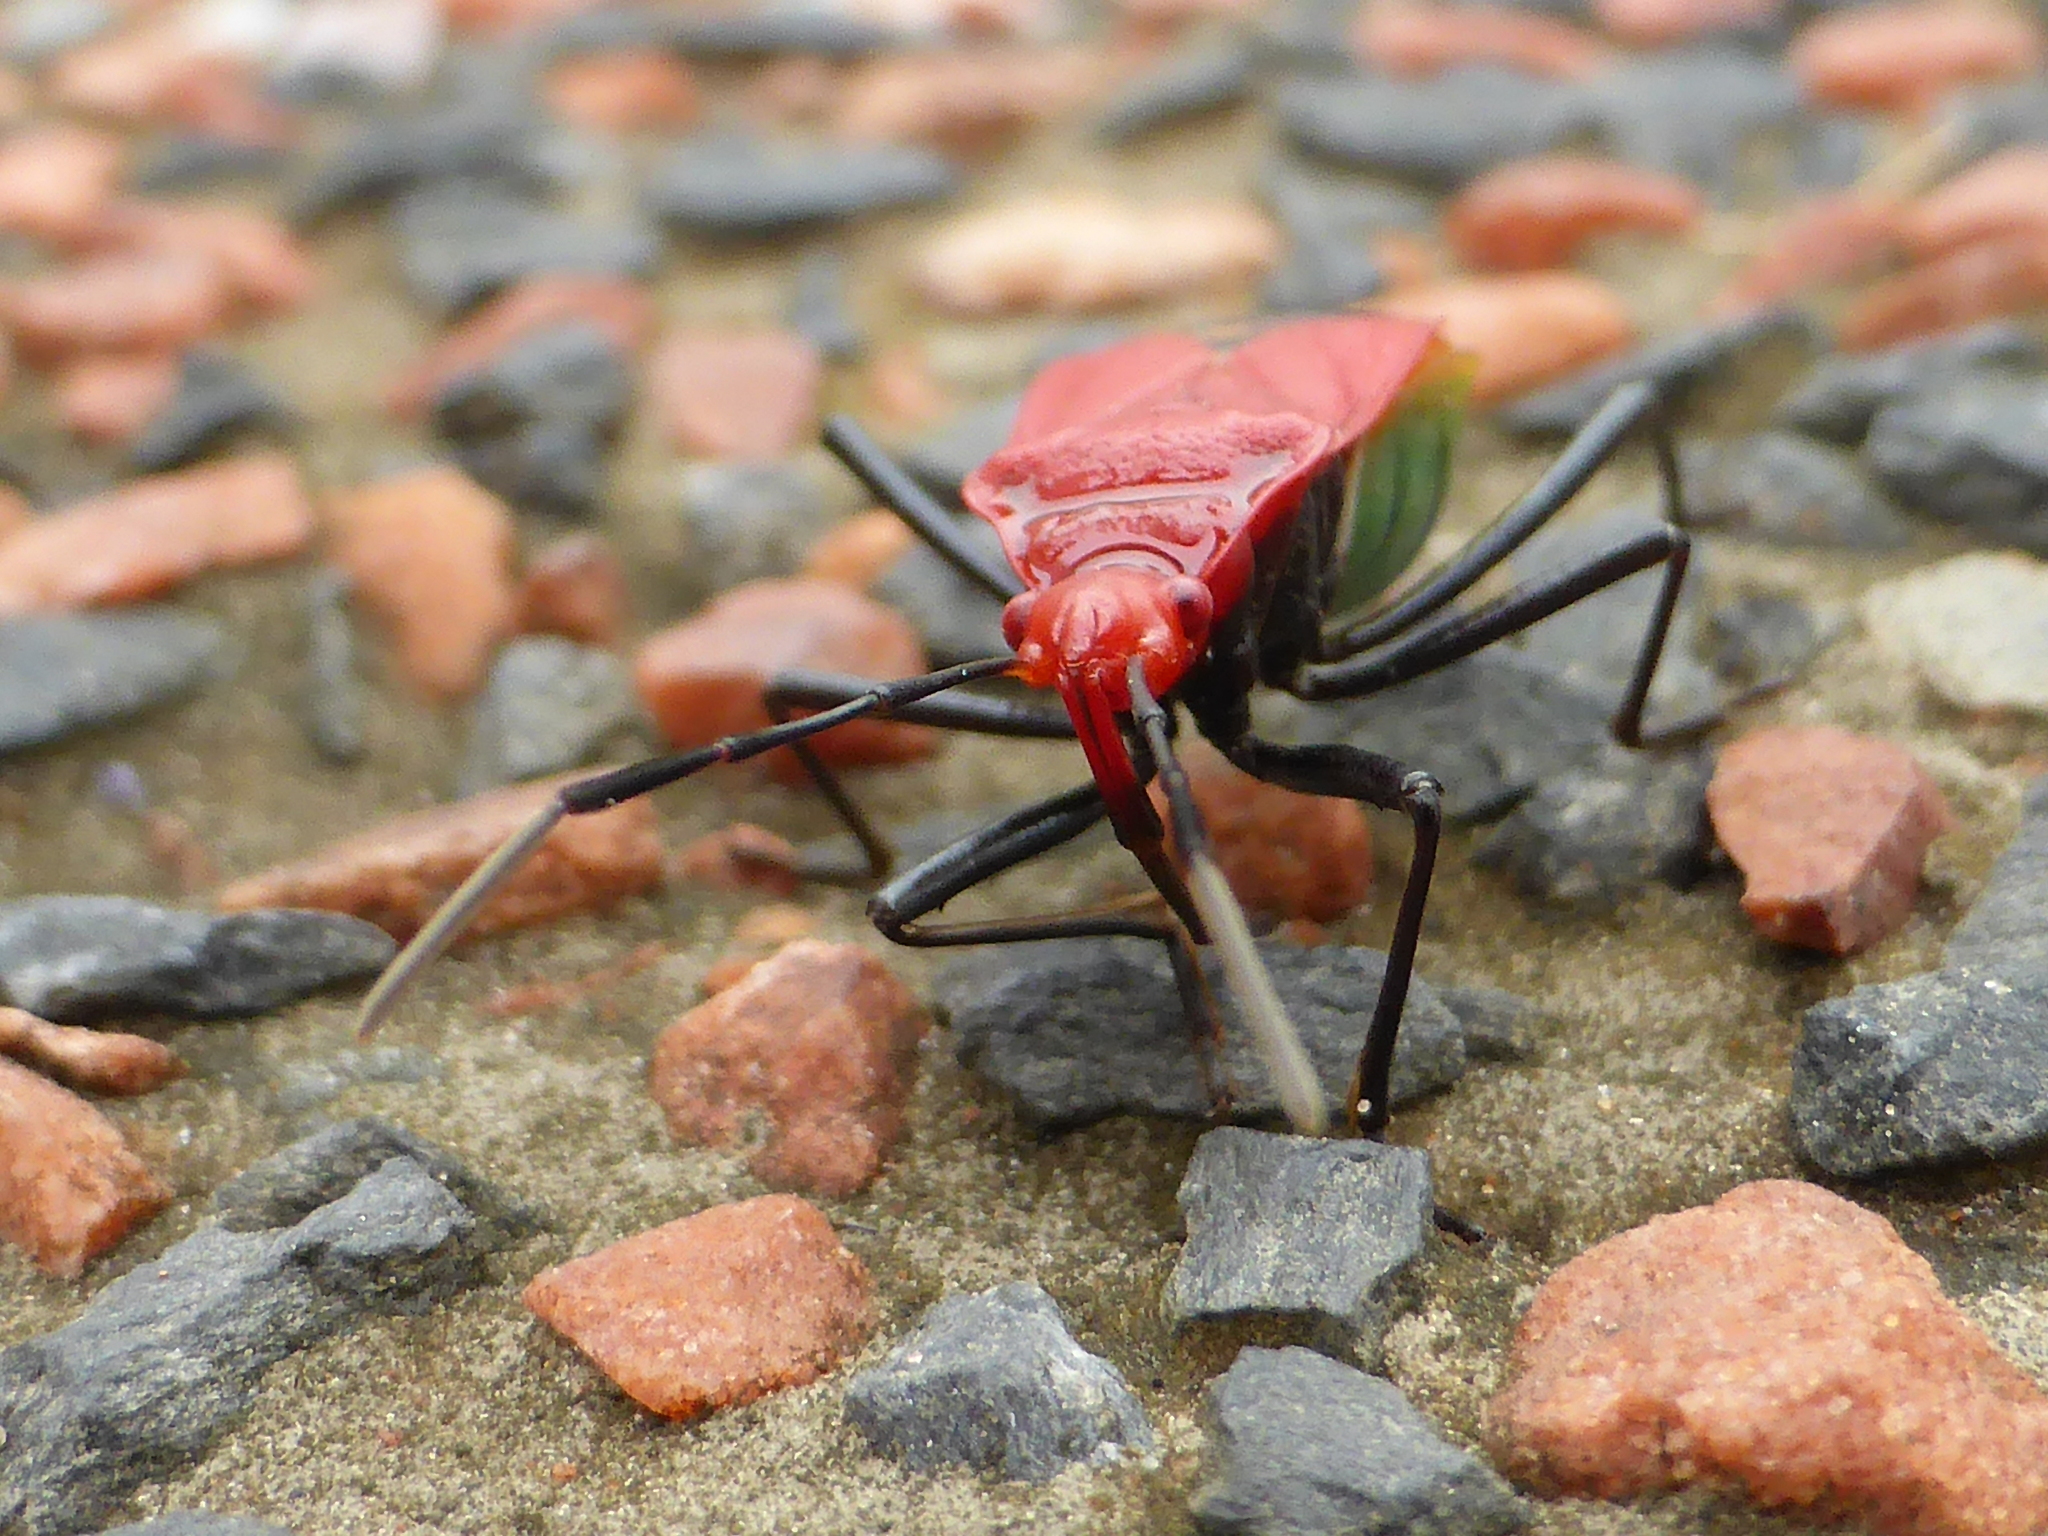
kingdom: Animalia
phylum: Arthropoda
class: Insecta
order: Hemiptera
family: Pyrrhocoridae
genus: Dindymus
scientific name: Dindymus
